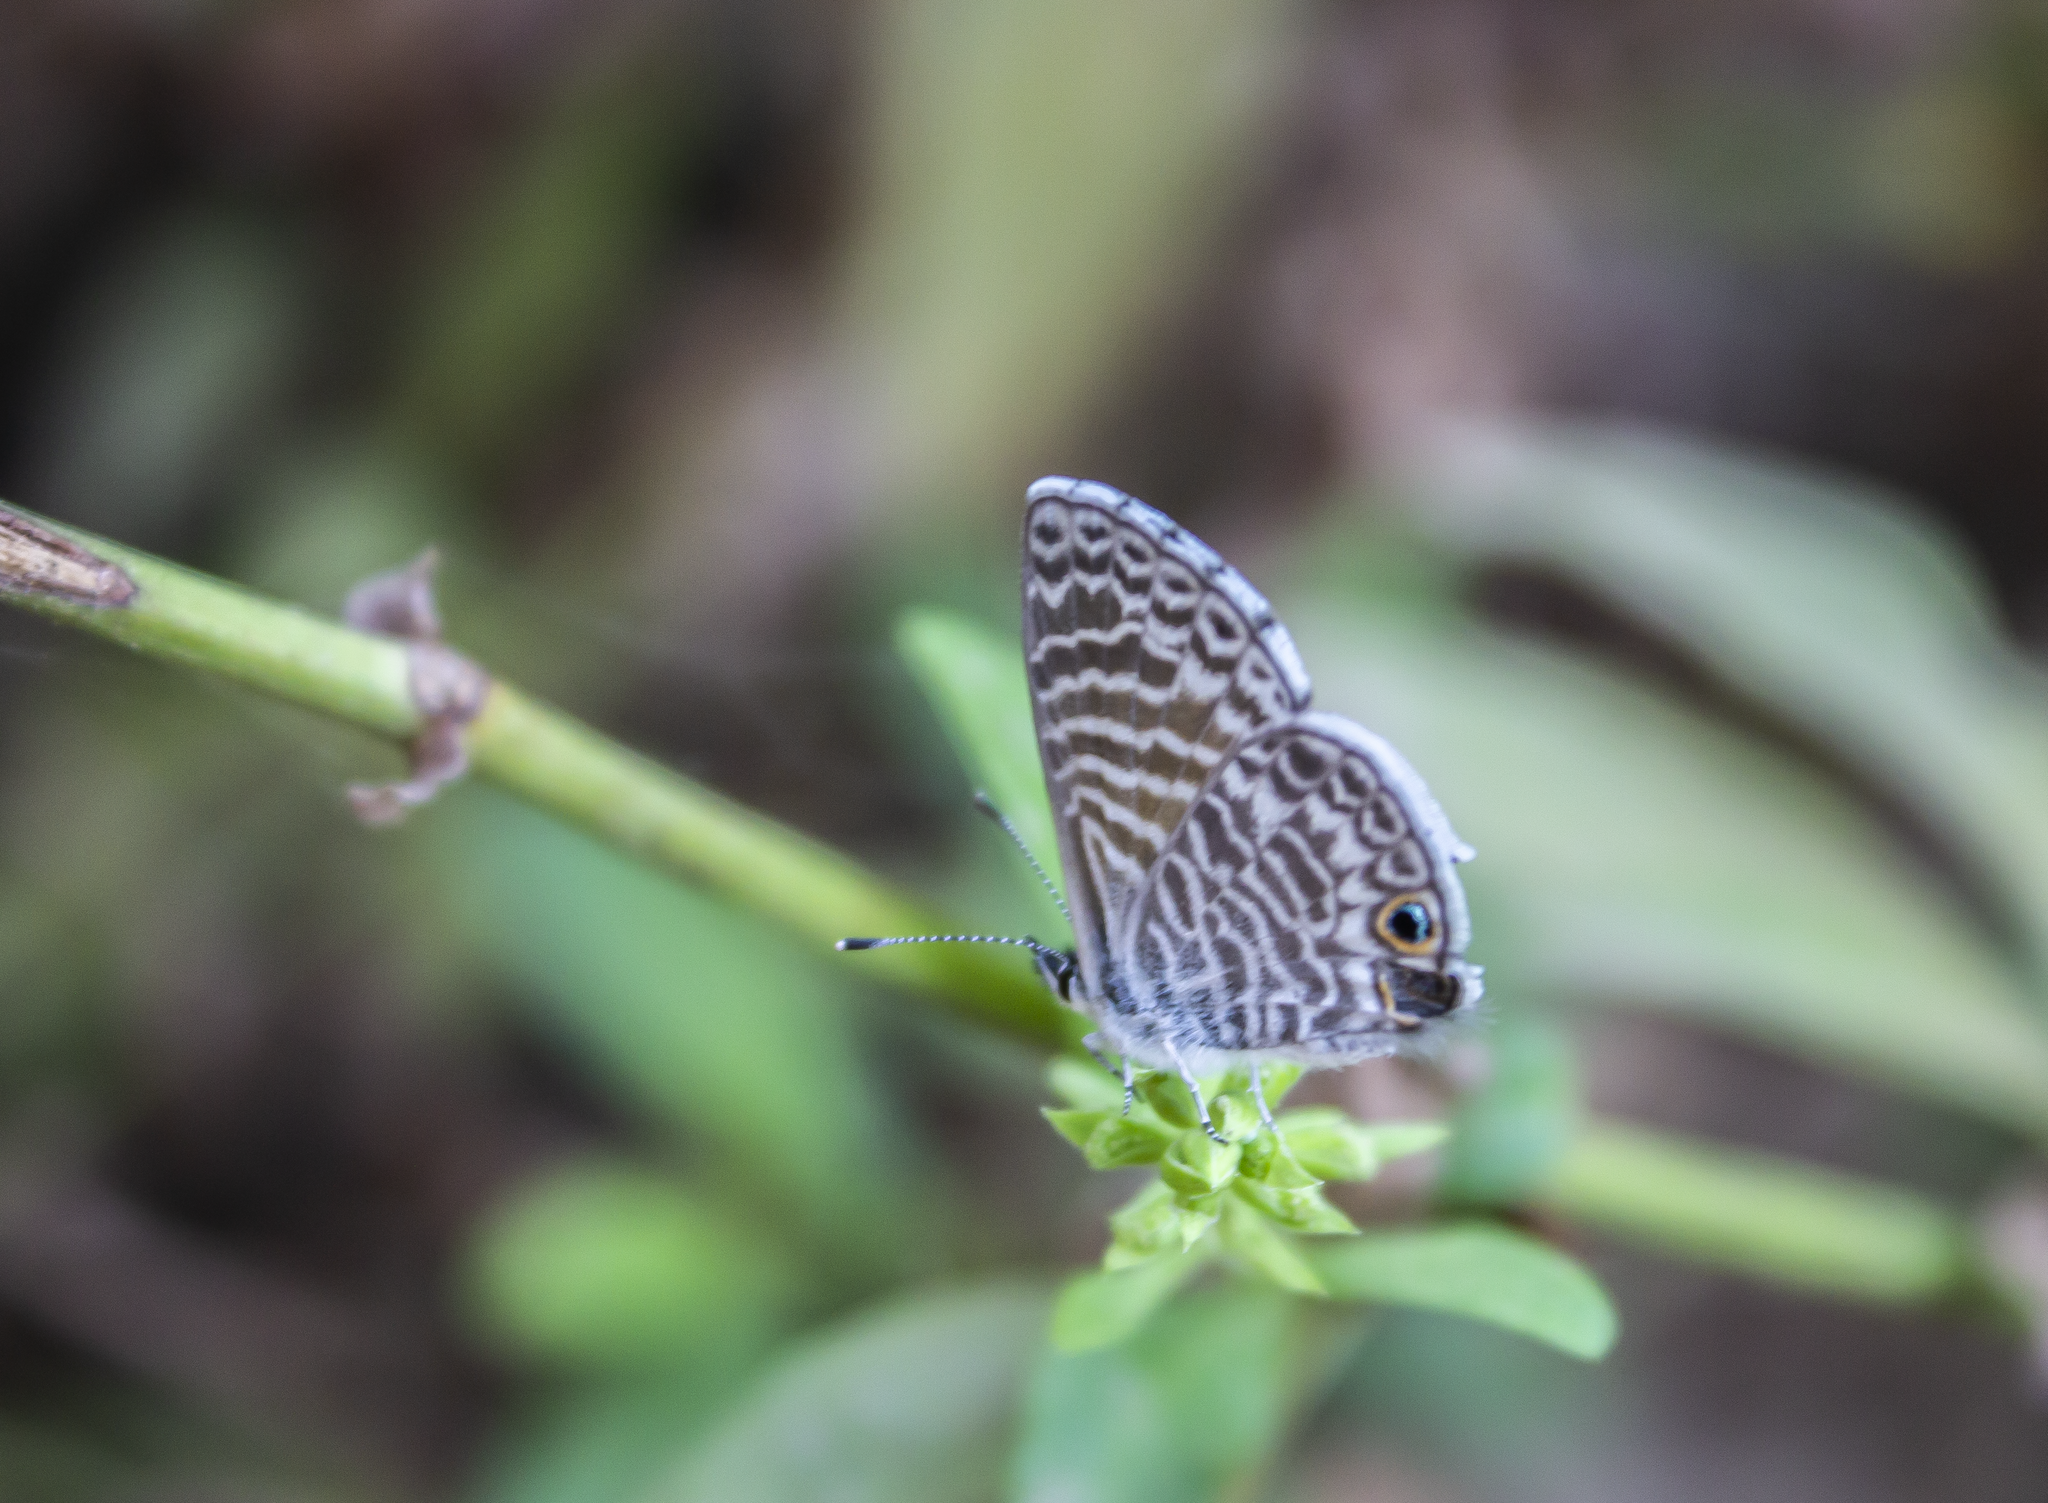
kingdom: Animalia
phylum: Arthropoda
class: Insecta
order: Lepidoptera
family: Lycaenidae
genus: Leptotes
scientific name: Leptotes marina
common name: Marine blue
